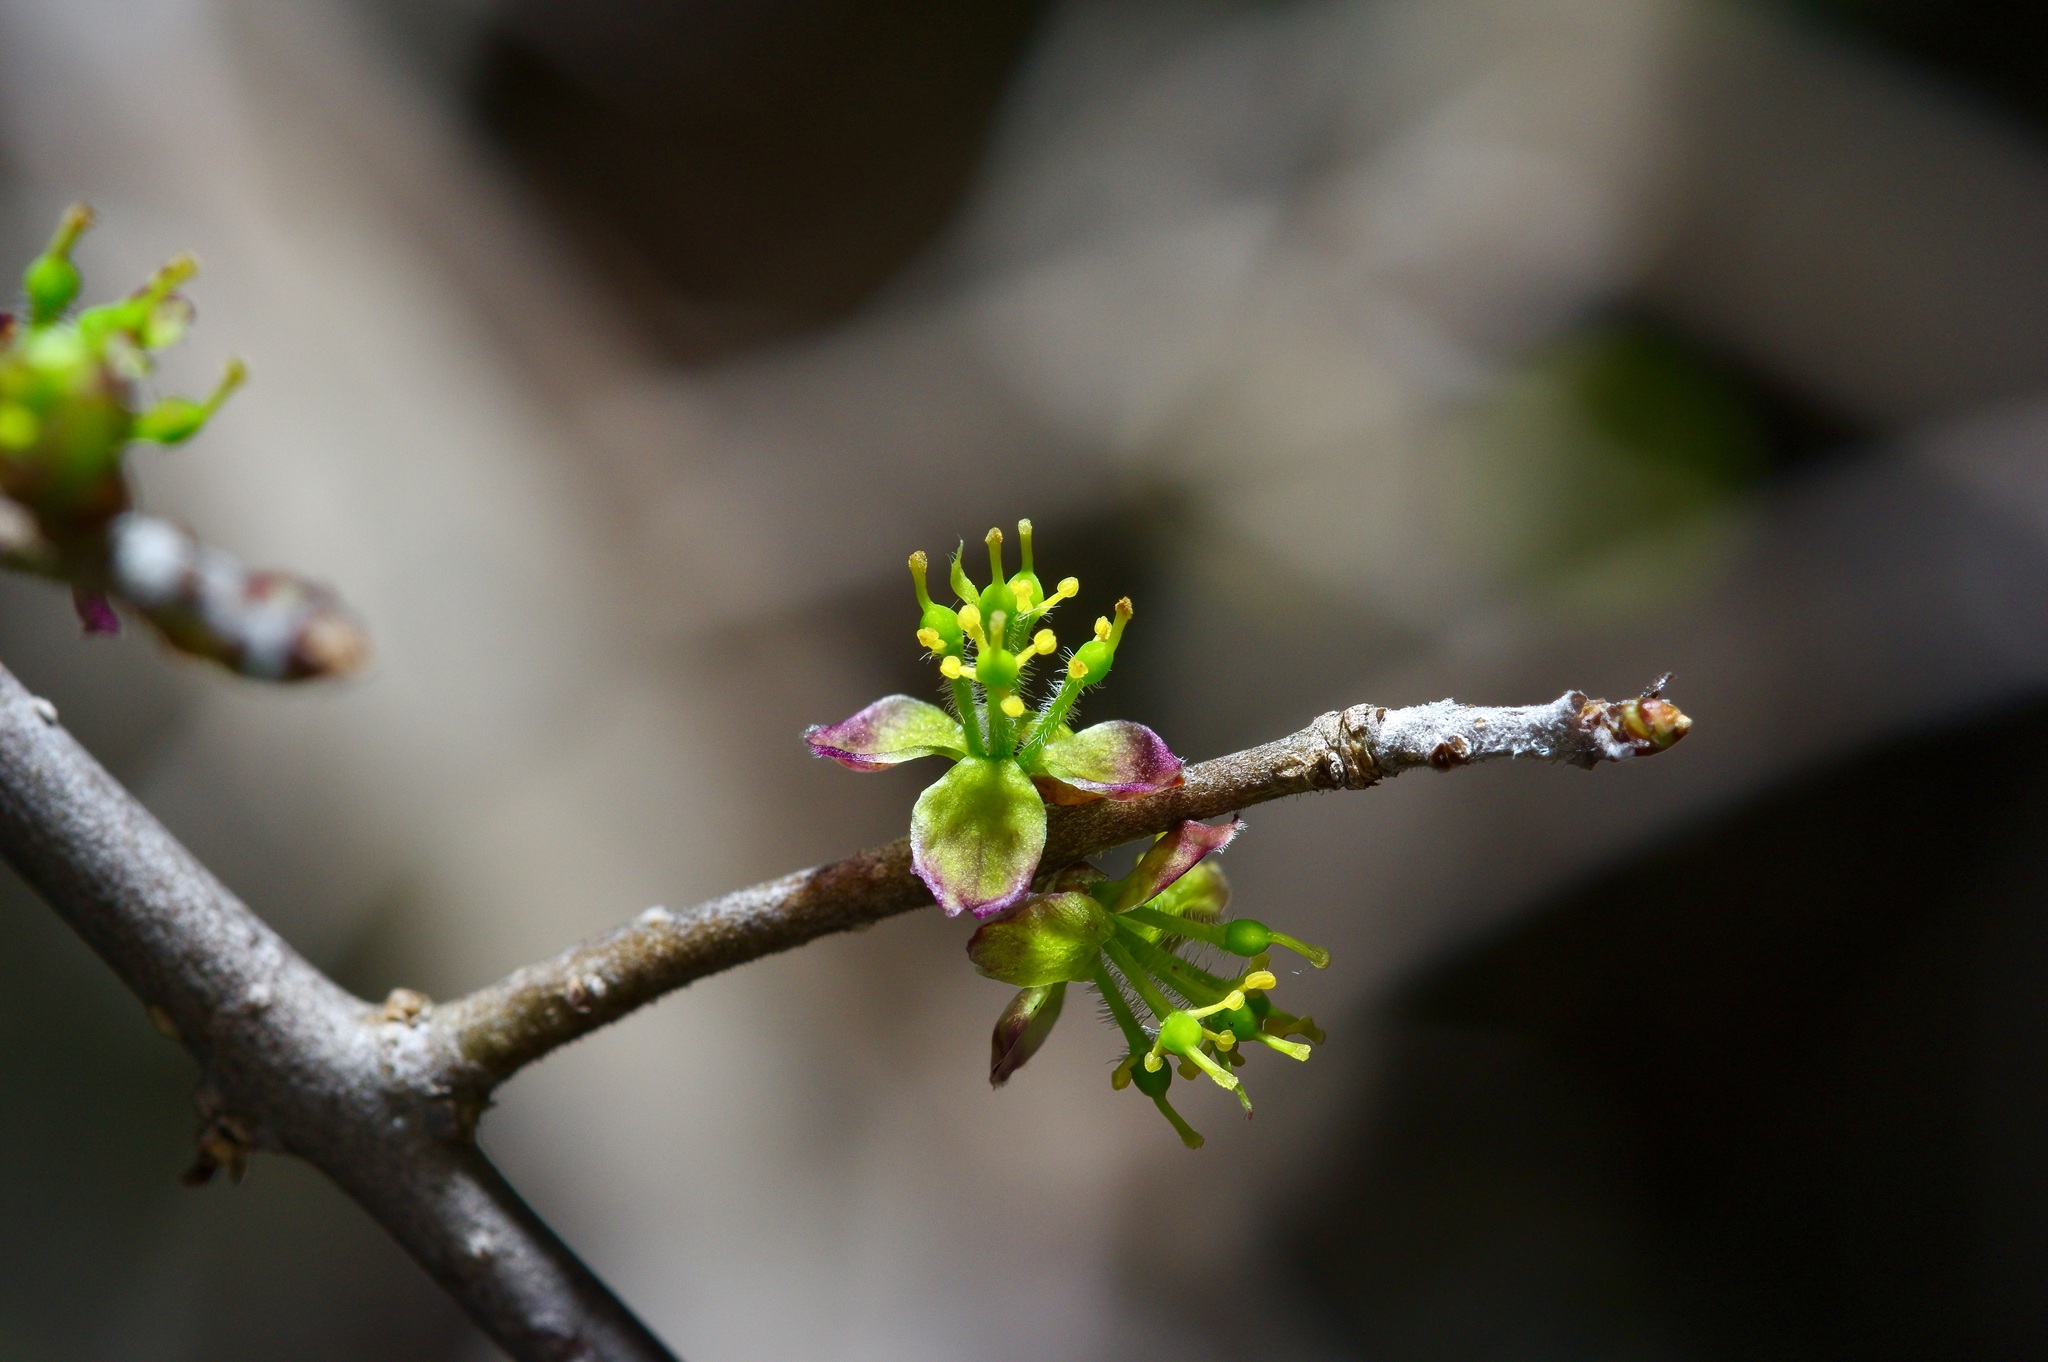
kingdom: Plantae
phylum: Tracheophyta
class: Magnoliopsida
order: Lamiales
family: Oleaceae
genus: Forestiera
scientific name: Forestiera pubescens
